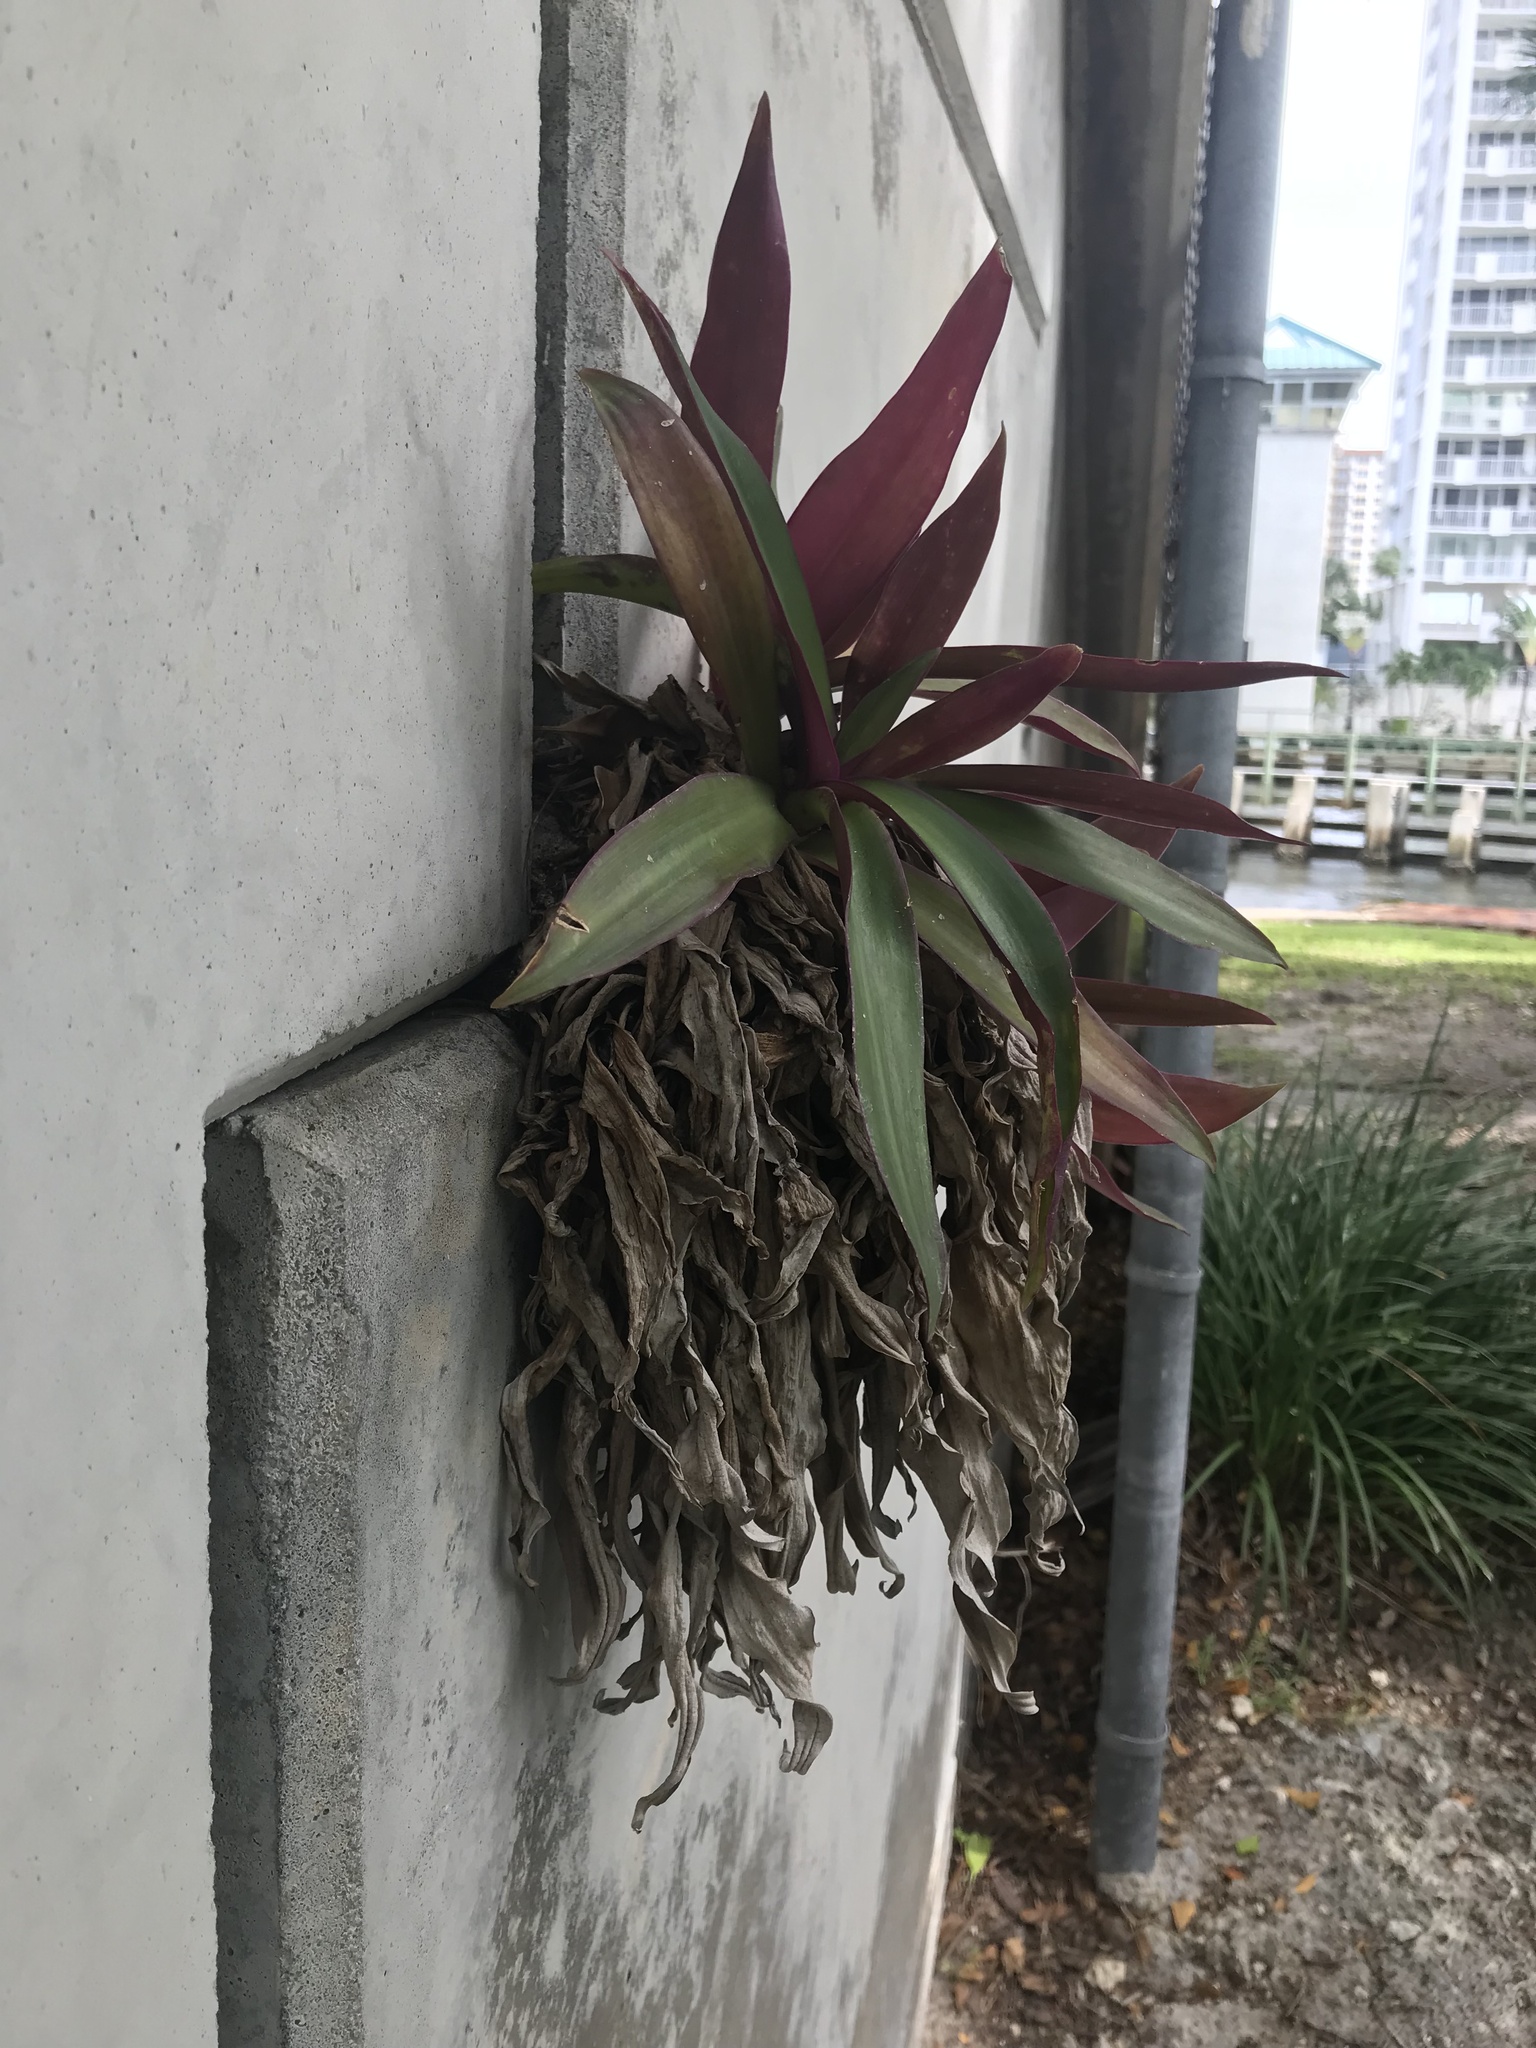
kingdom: Plantae
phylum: Tracheophyta
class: Liliopsida
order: Commelinales
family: Commelinaceae
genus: Tradescantia
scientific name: Tradescantia spathacea
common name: Boatlily
